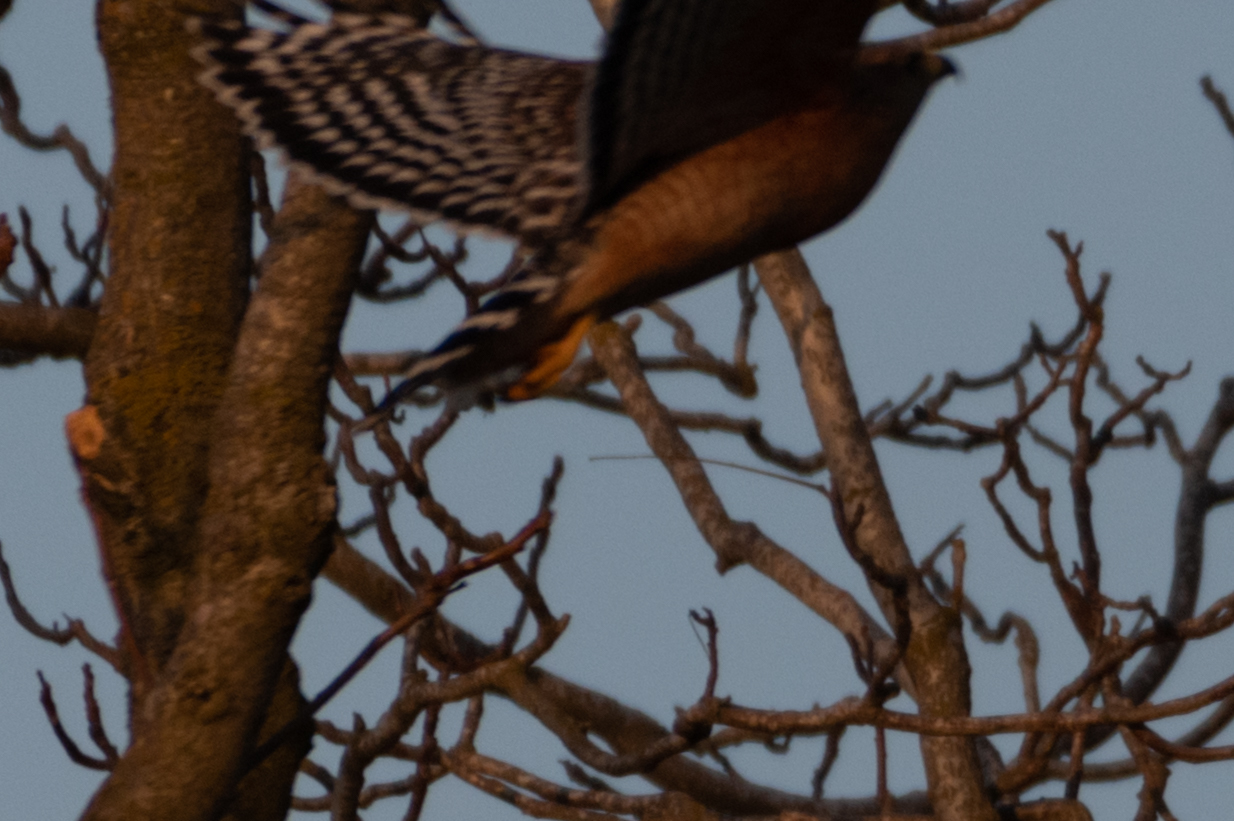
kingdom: Animalia
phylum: Chordata
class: Aves
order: Accipitriformes
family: Accipitridae
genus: Buteo
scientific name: Buteo lineatus
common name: Red-shouldered hawk
